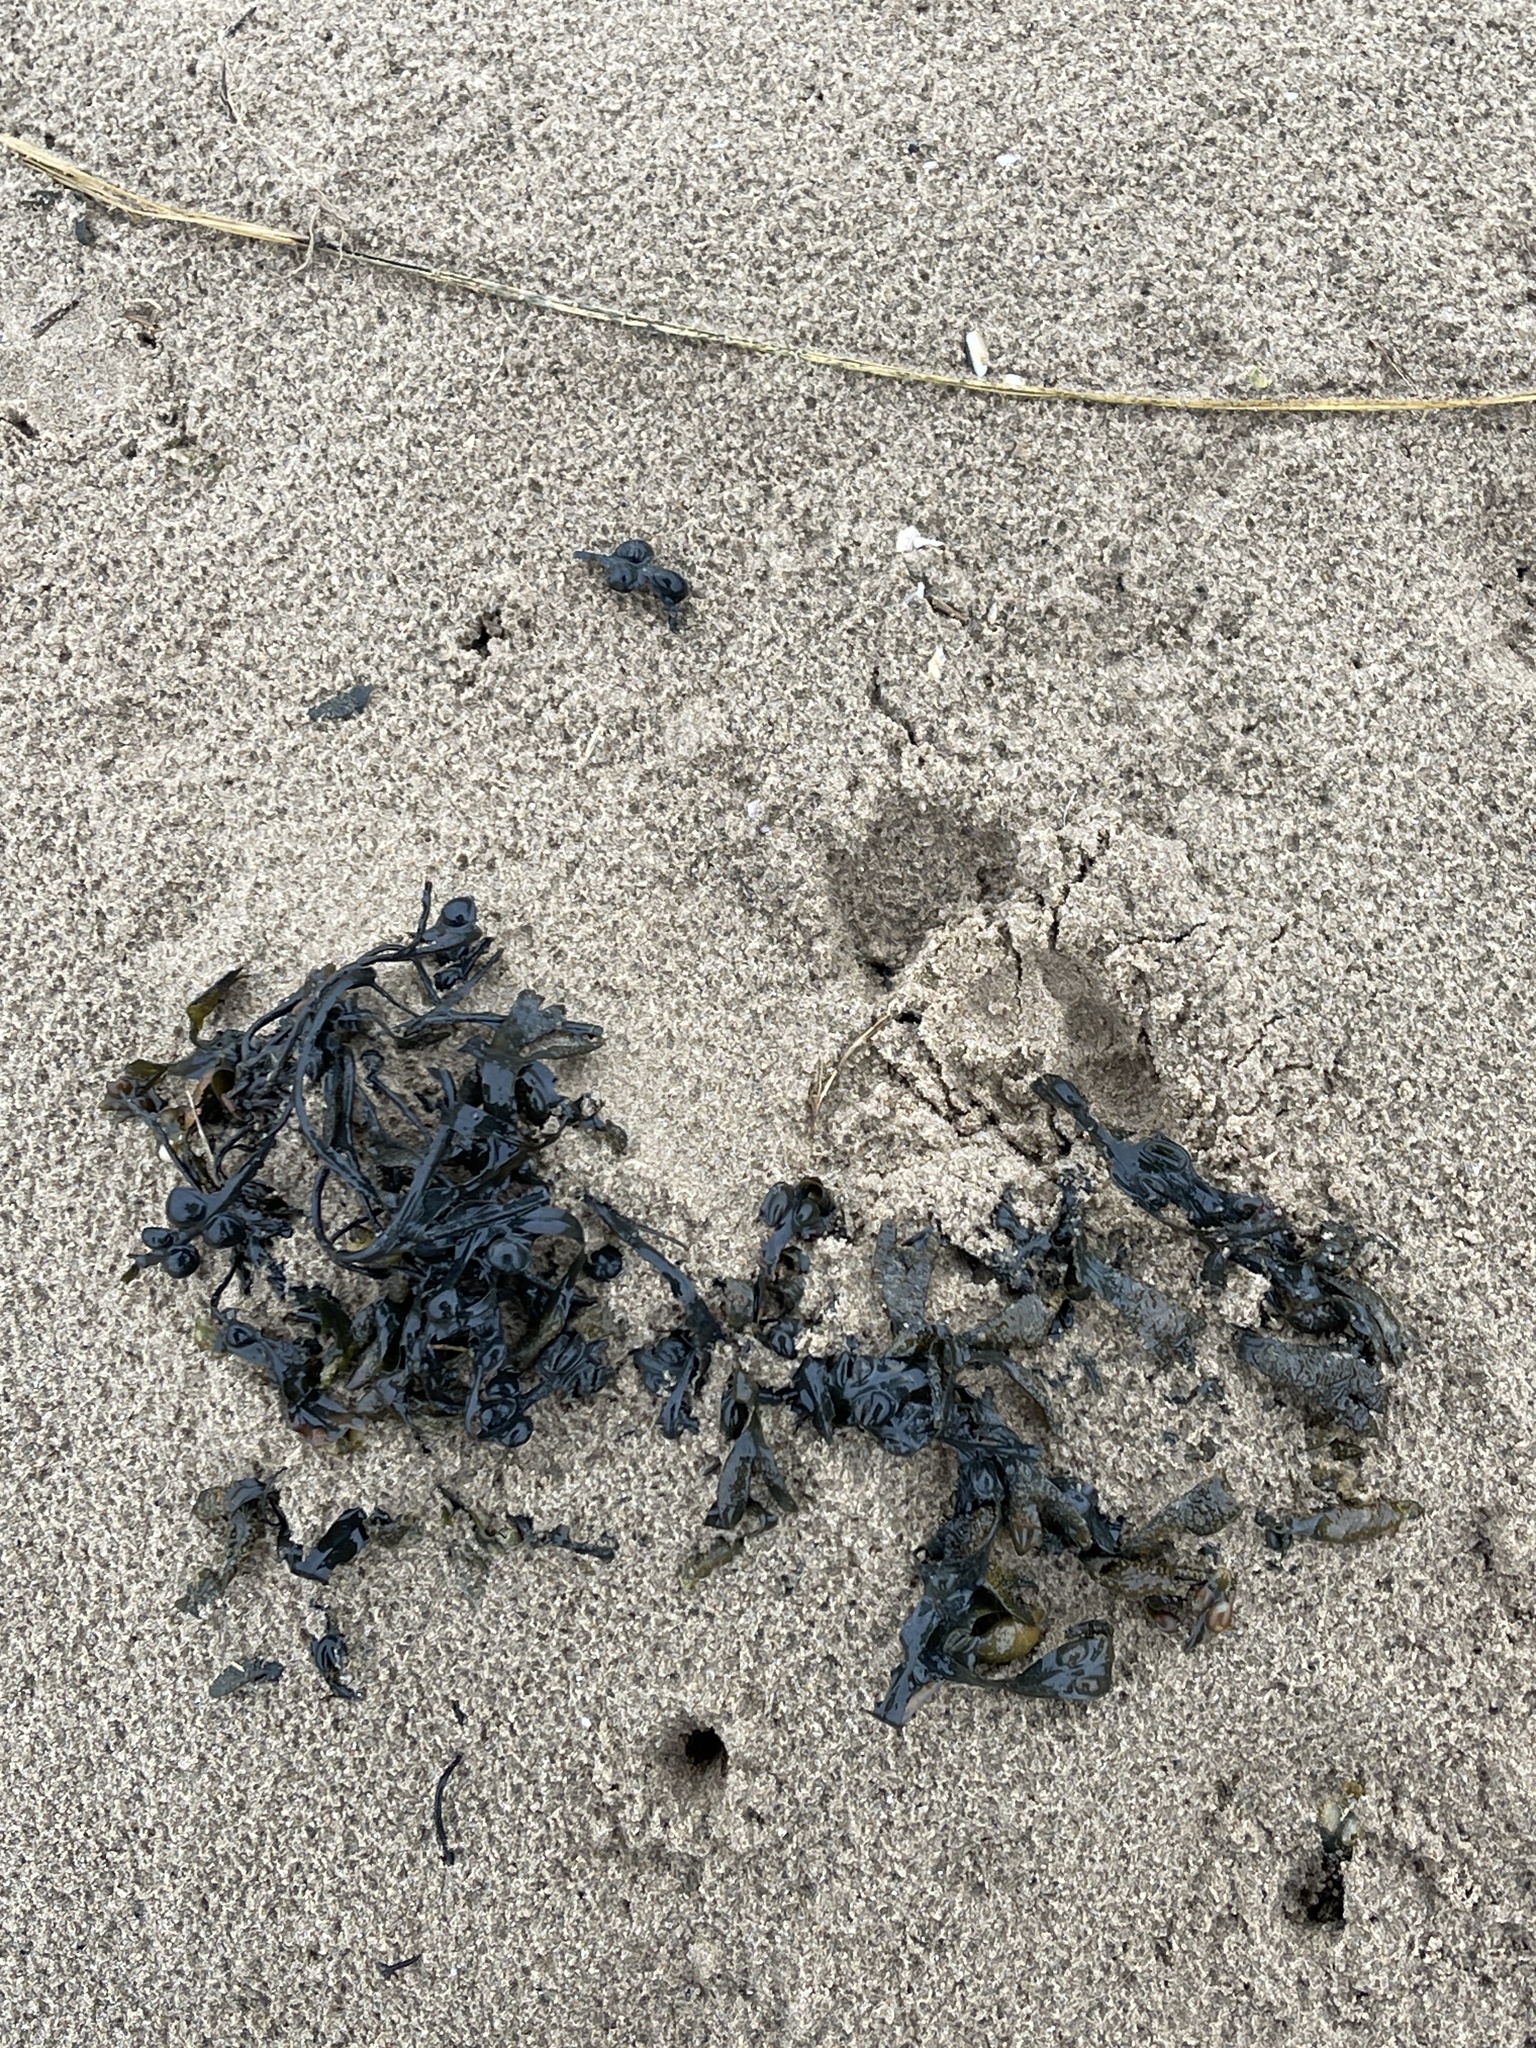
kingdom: Chromista
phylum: Ochrophyta
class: Phaeophyceae
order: Fucales
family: Fucaceae
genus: Fucus
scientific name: Fucus vesiculosus
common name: Bladder wrack
